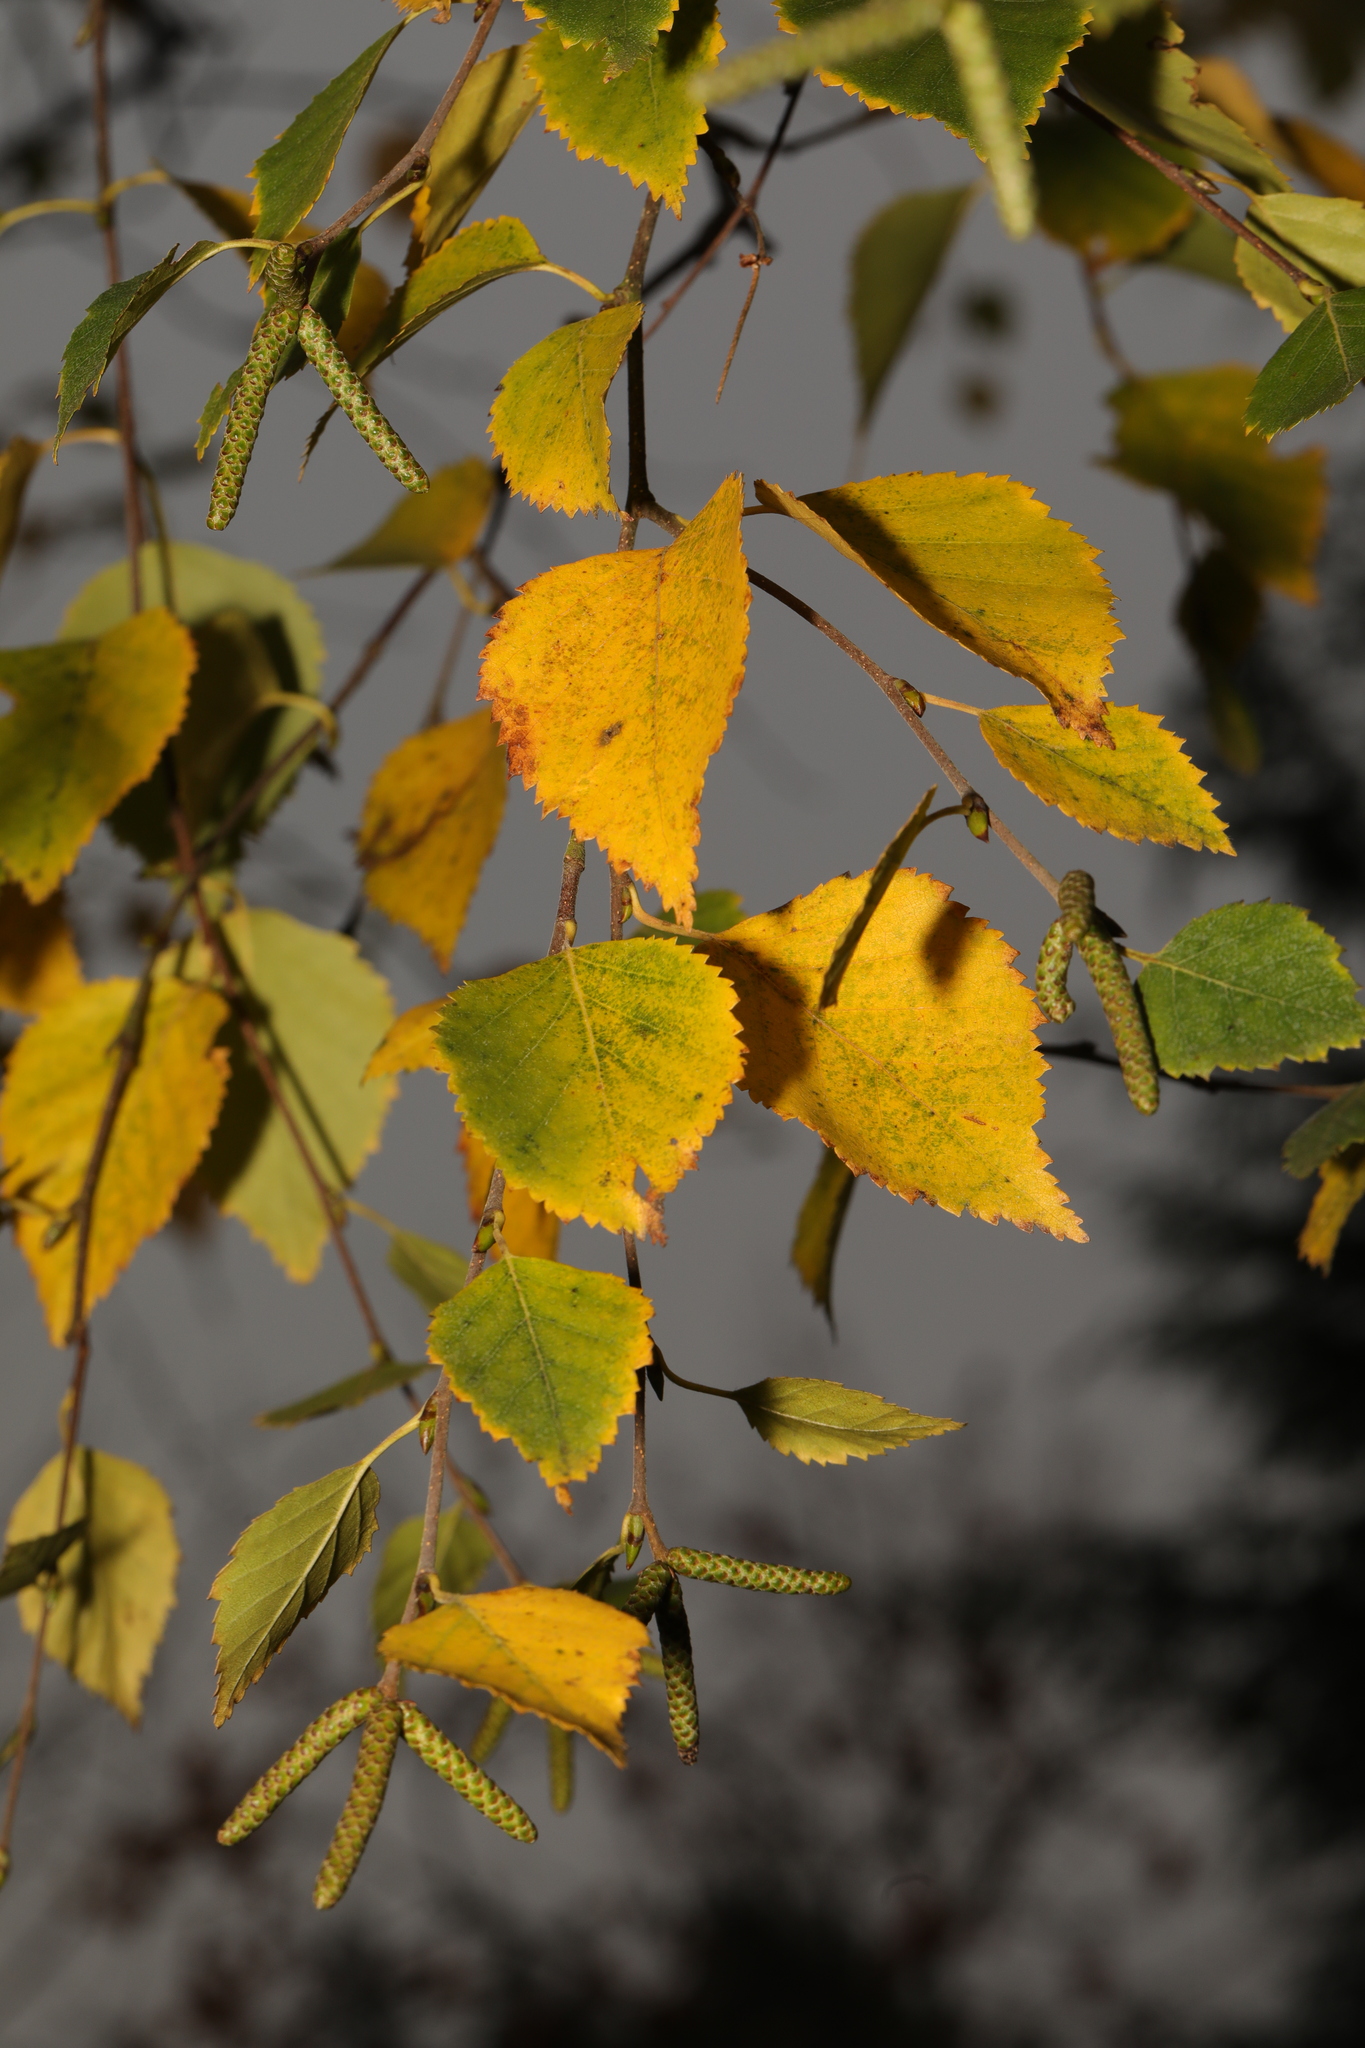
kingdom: Plantae
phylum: Tracheophyta
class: Magnoliopsida
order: Fagales
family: Betulaceae
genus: Betula
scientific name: Betula pendula
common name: Silver birch
